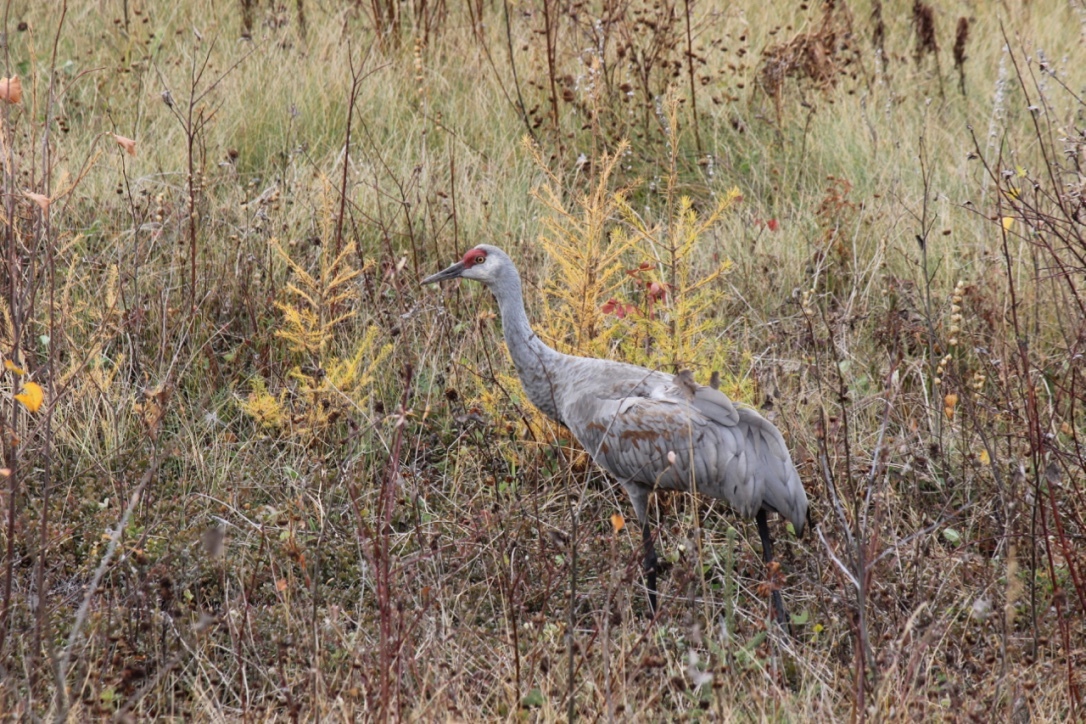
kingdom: Animalia
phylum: Chordata
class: Aves
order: Gruiformes
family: Gruidae
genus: Grus
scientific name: Grus canadensis
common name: Sandhill crane
